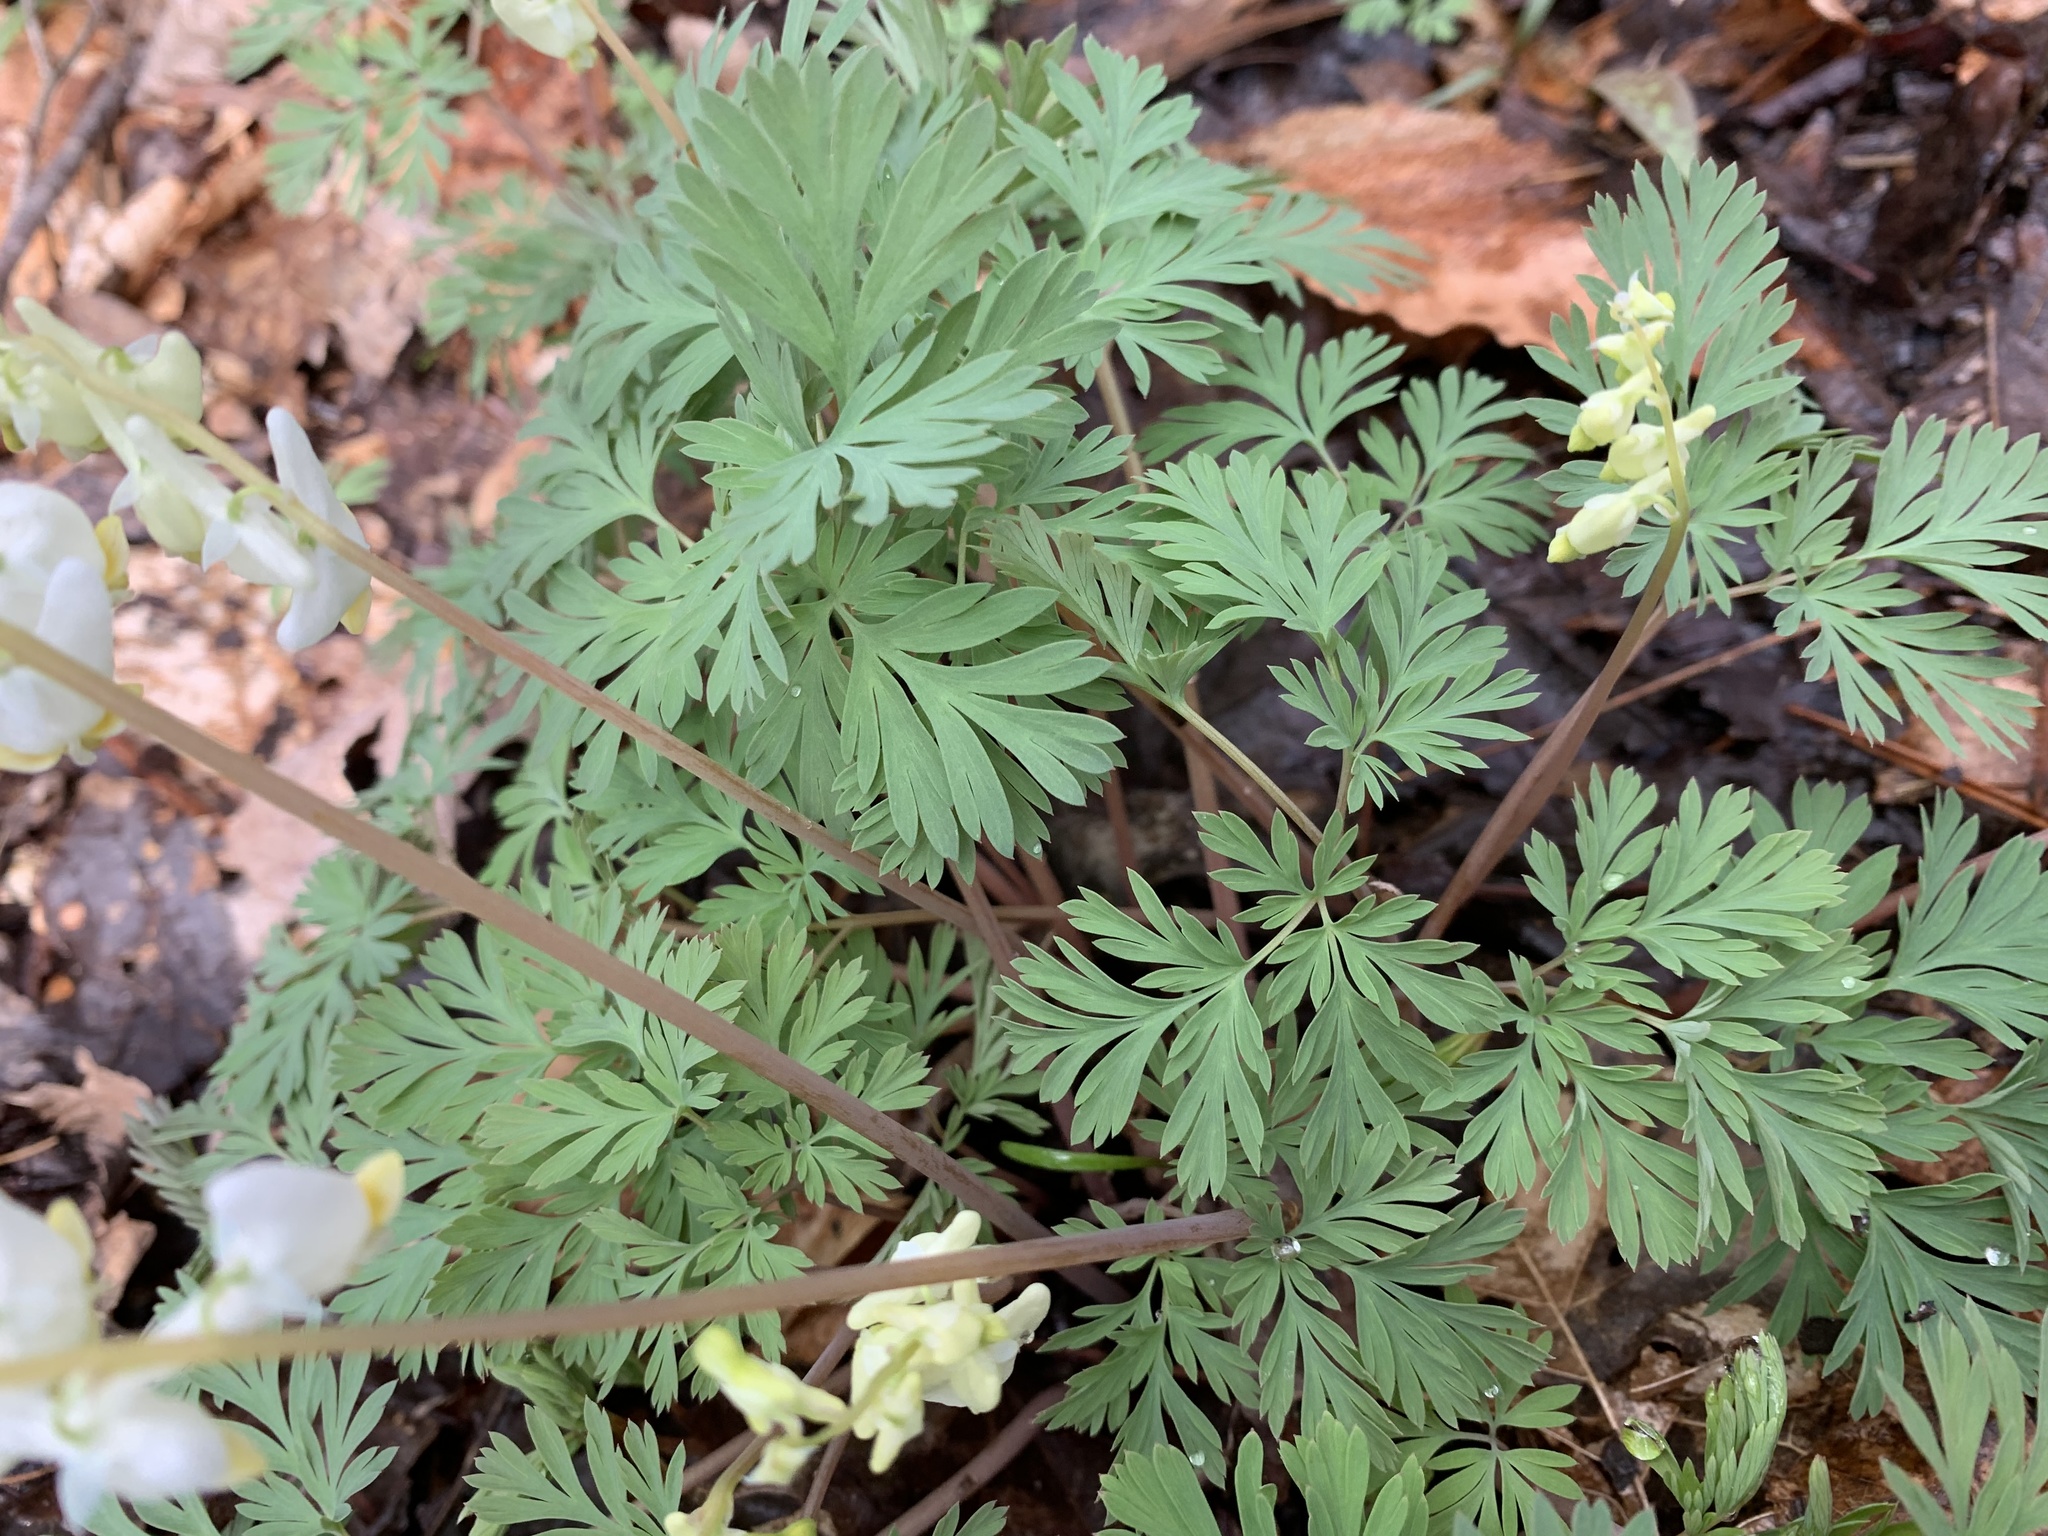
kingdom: Plantae
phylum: Tracheophyta
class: Magnoliopsida
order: Ranunculales
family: Papaveraceae
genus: Dicentra
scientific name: Dicentra cucullaria
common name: Dutchman's breeches
